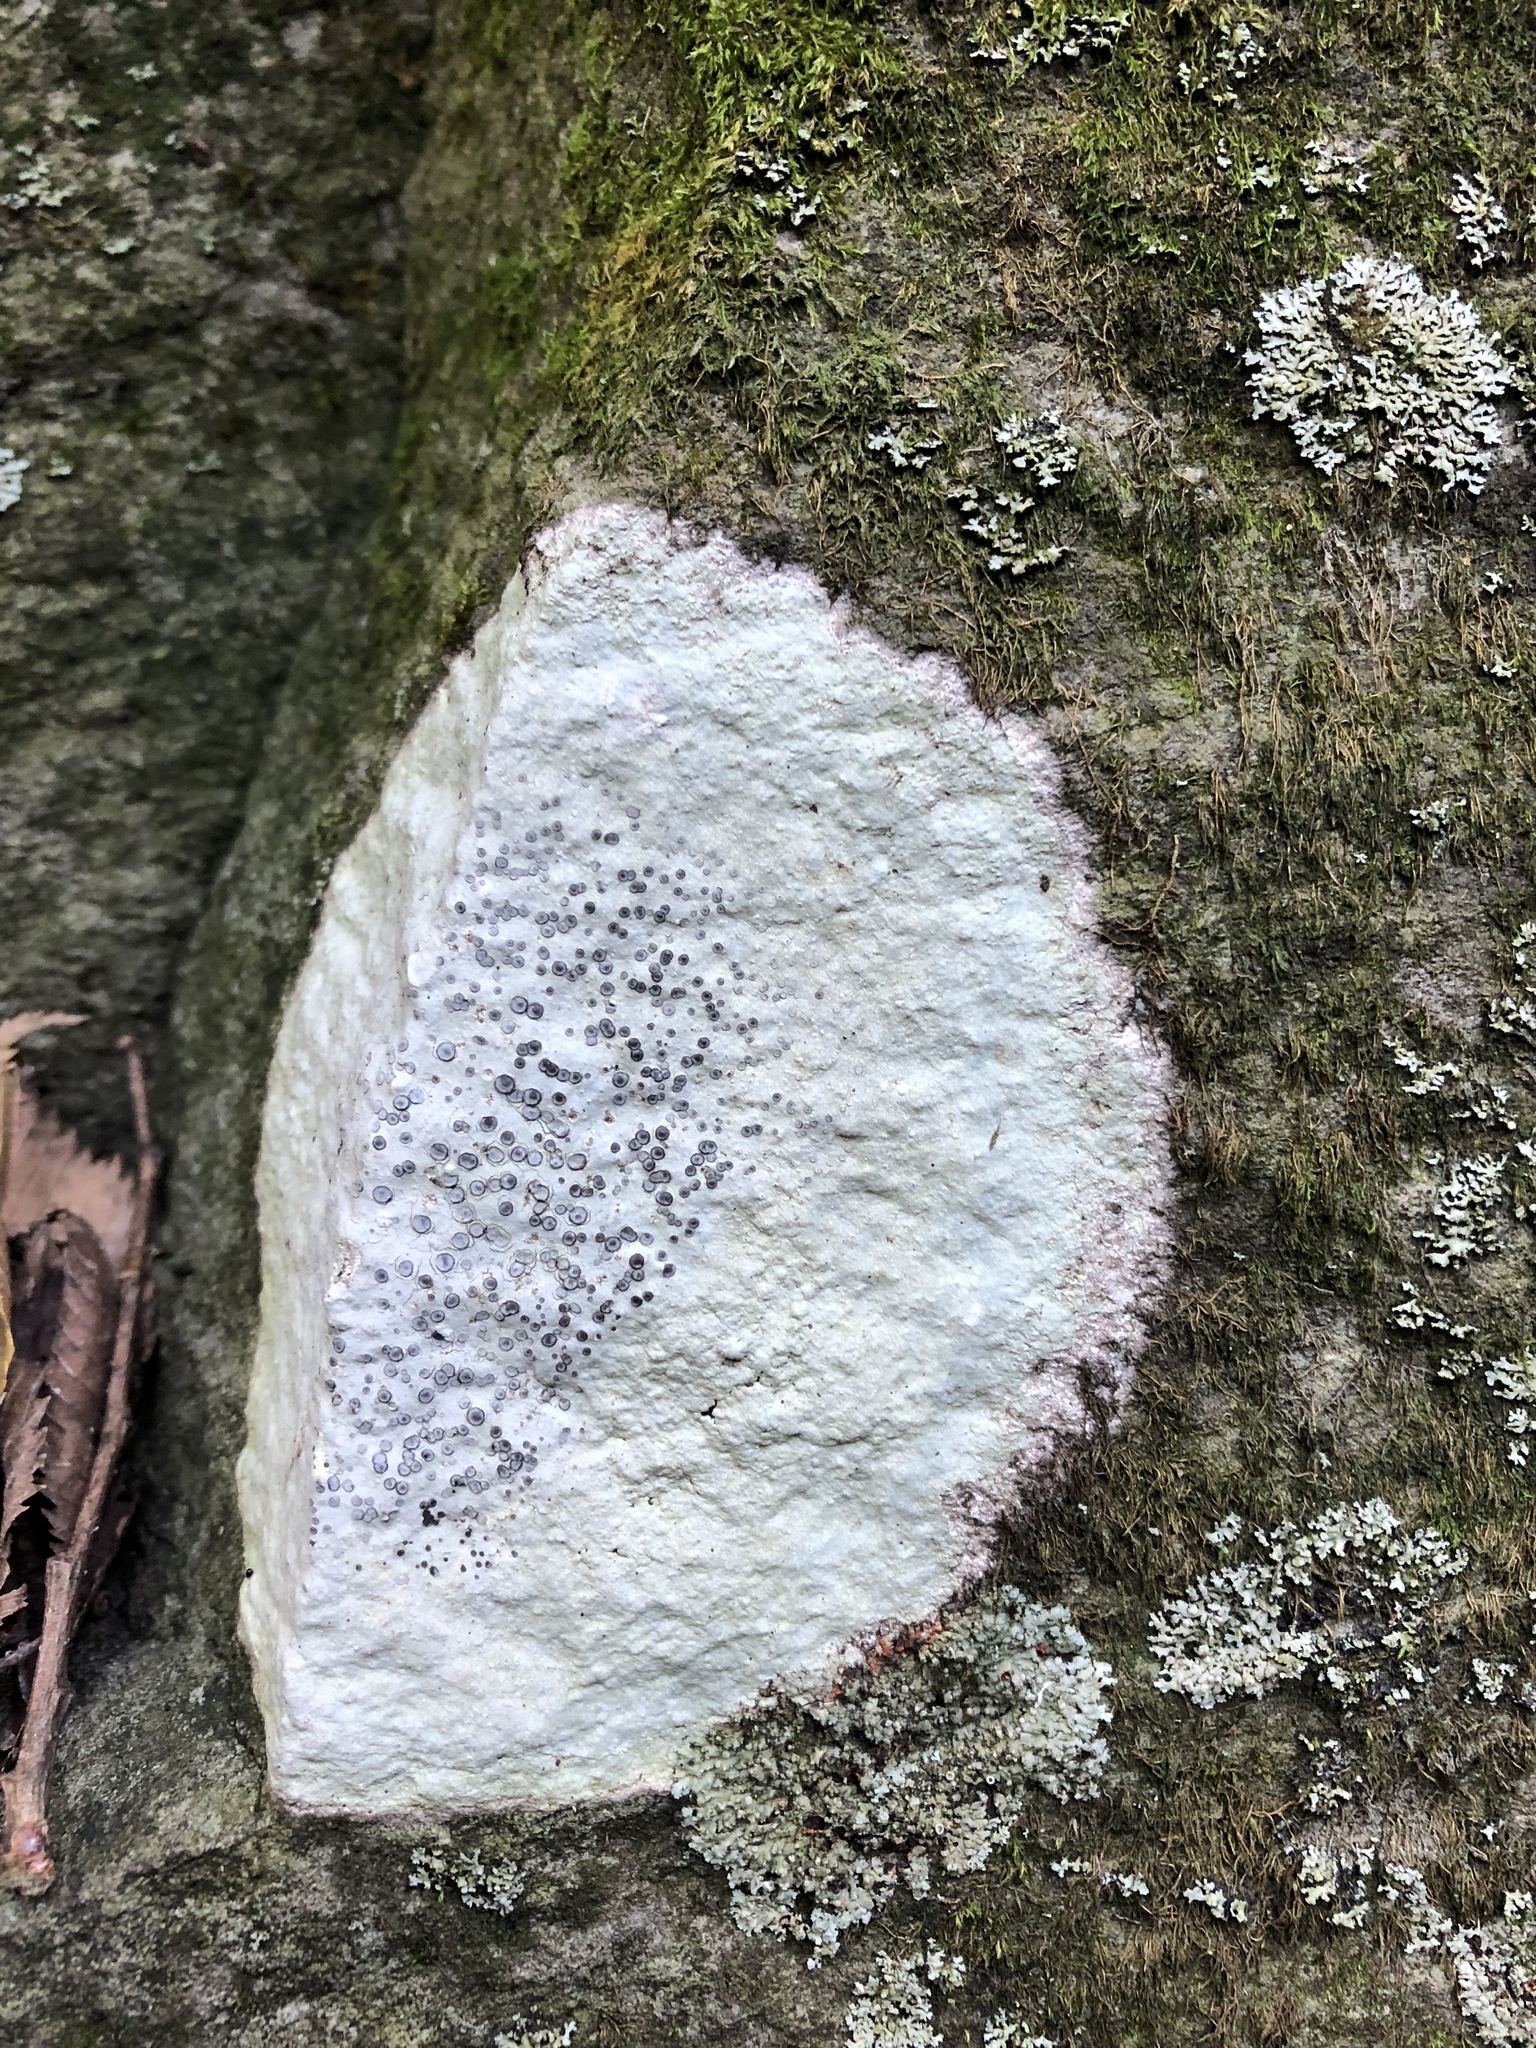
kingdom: Fungi
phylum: Ascomycota
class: Lecanoromycetes
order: Lecideales
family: Lecideaceae
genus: Porpidia
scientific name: Porpidia albocaerulescens
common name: Smokey-eyed boulder lichen
